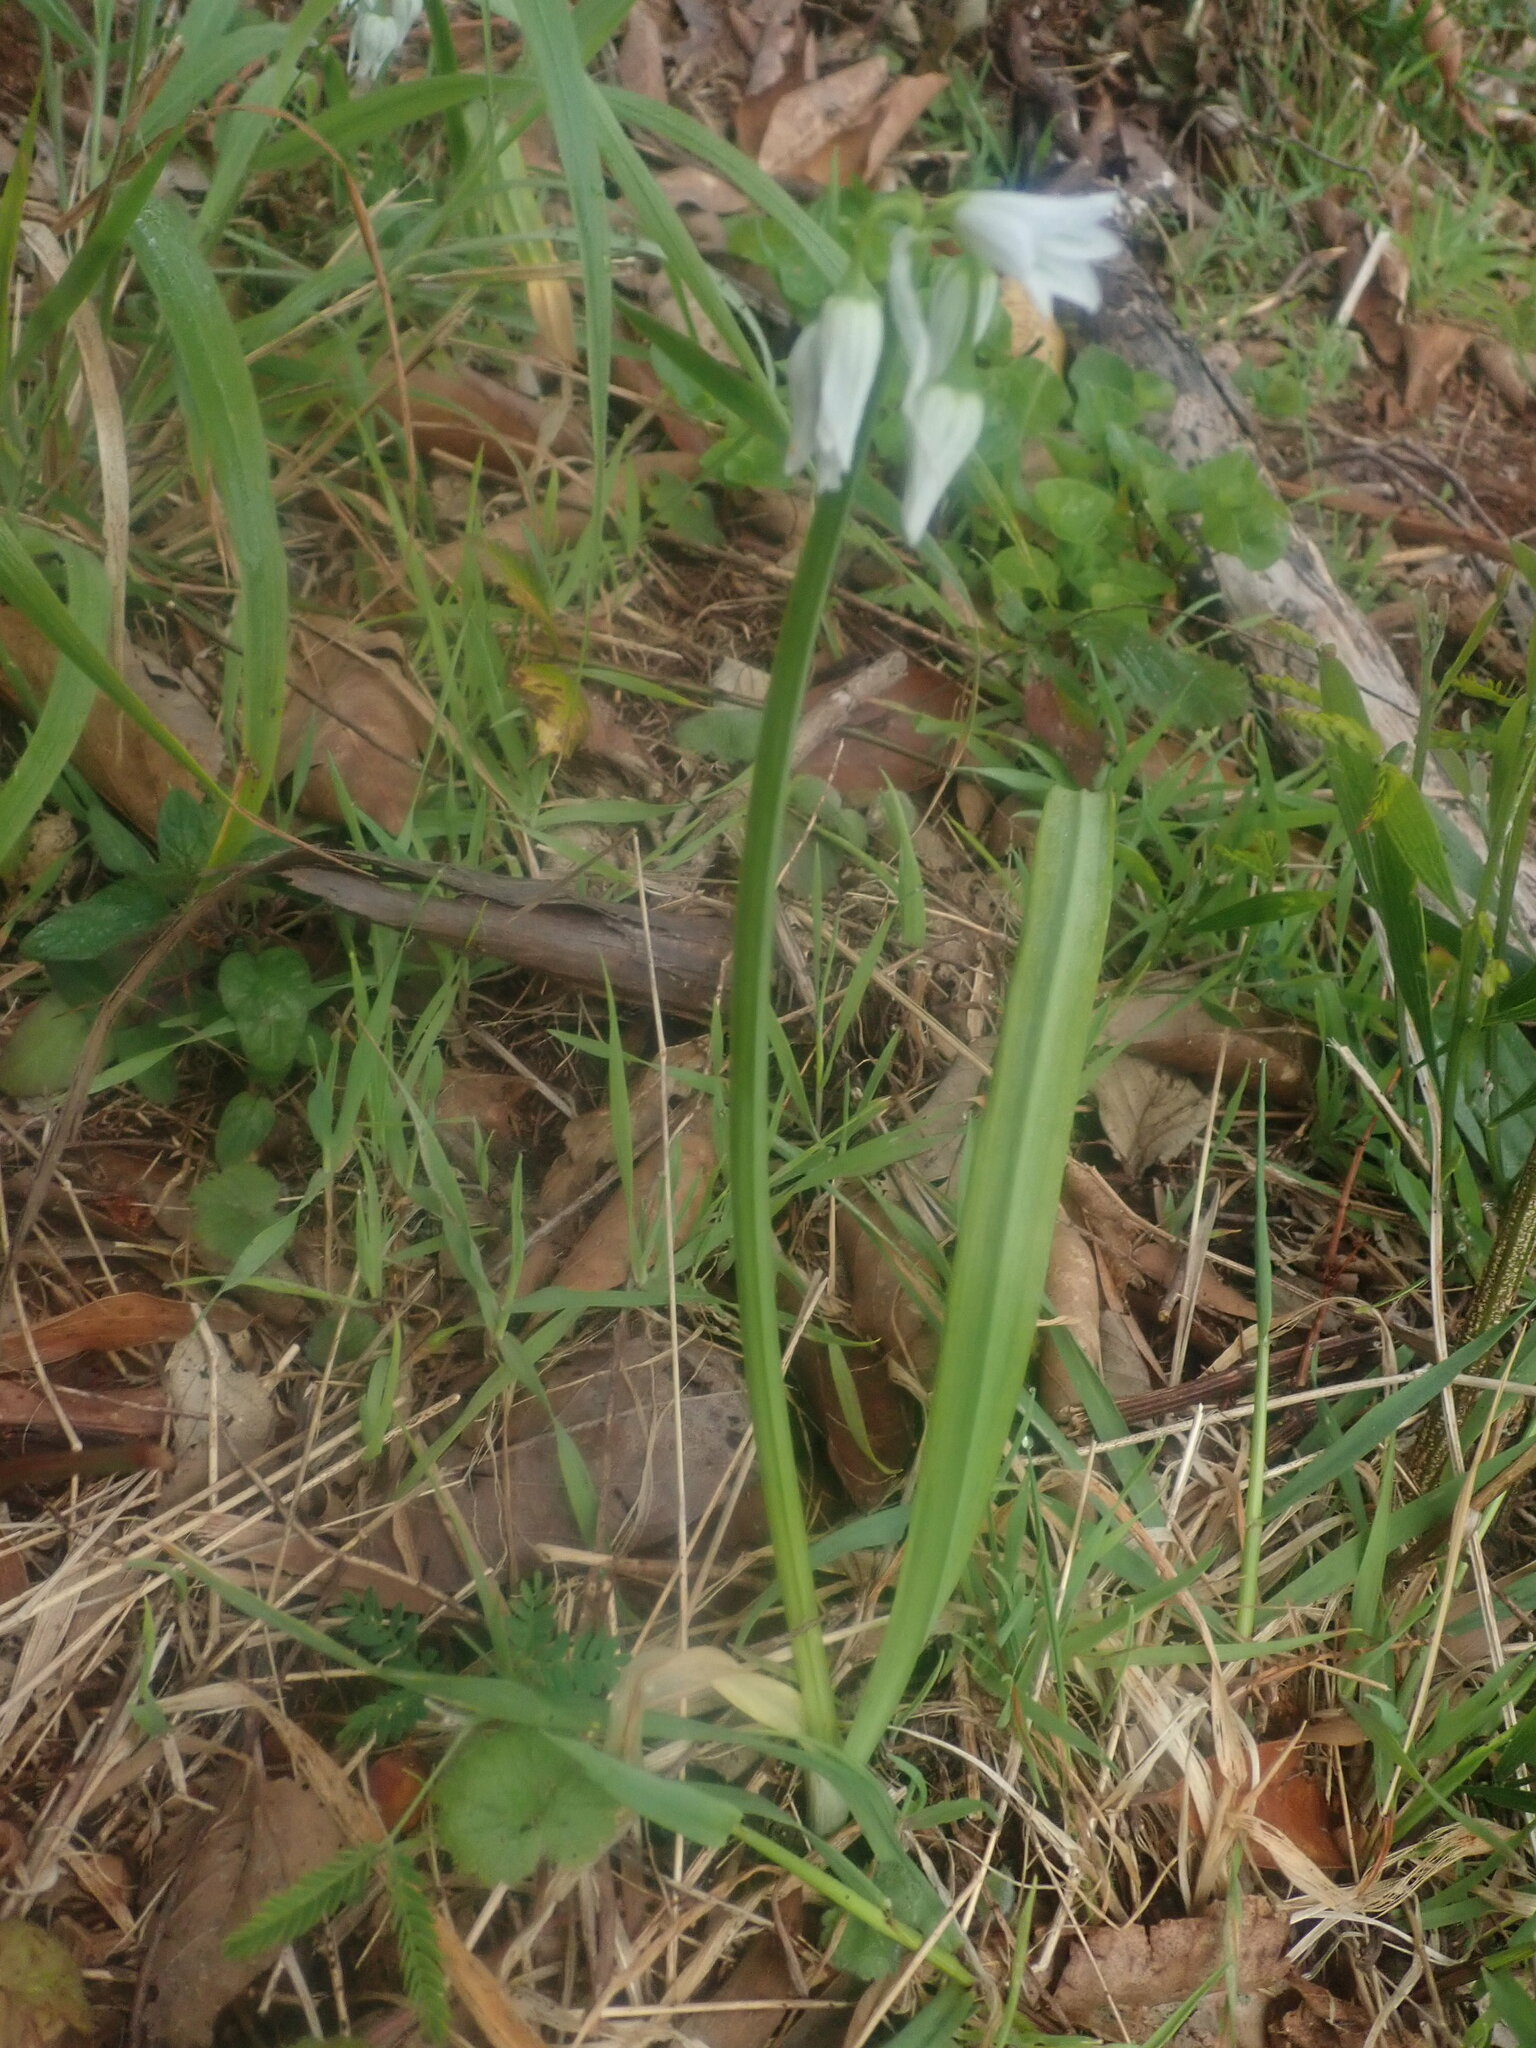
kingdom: Plantae
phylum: Tracheophyta
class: Liliopsida
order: Asparagales
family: Amaryllidaceae
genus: Allium
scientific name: Allium triquetrum
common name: Three-cornered garlic
